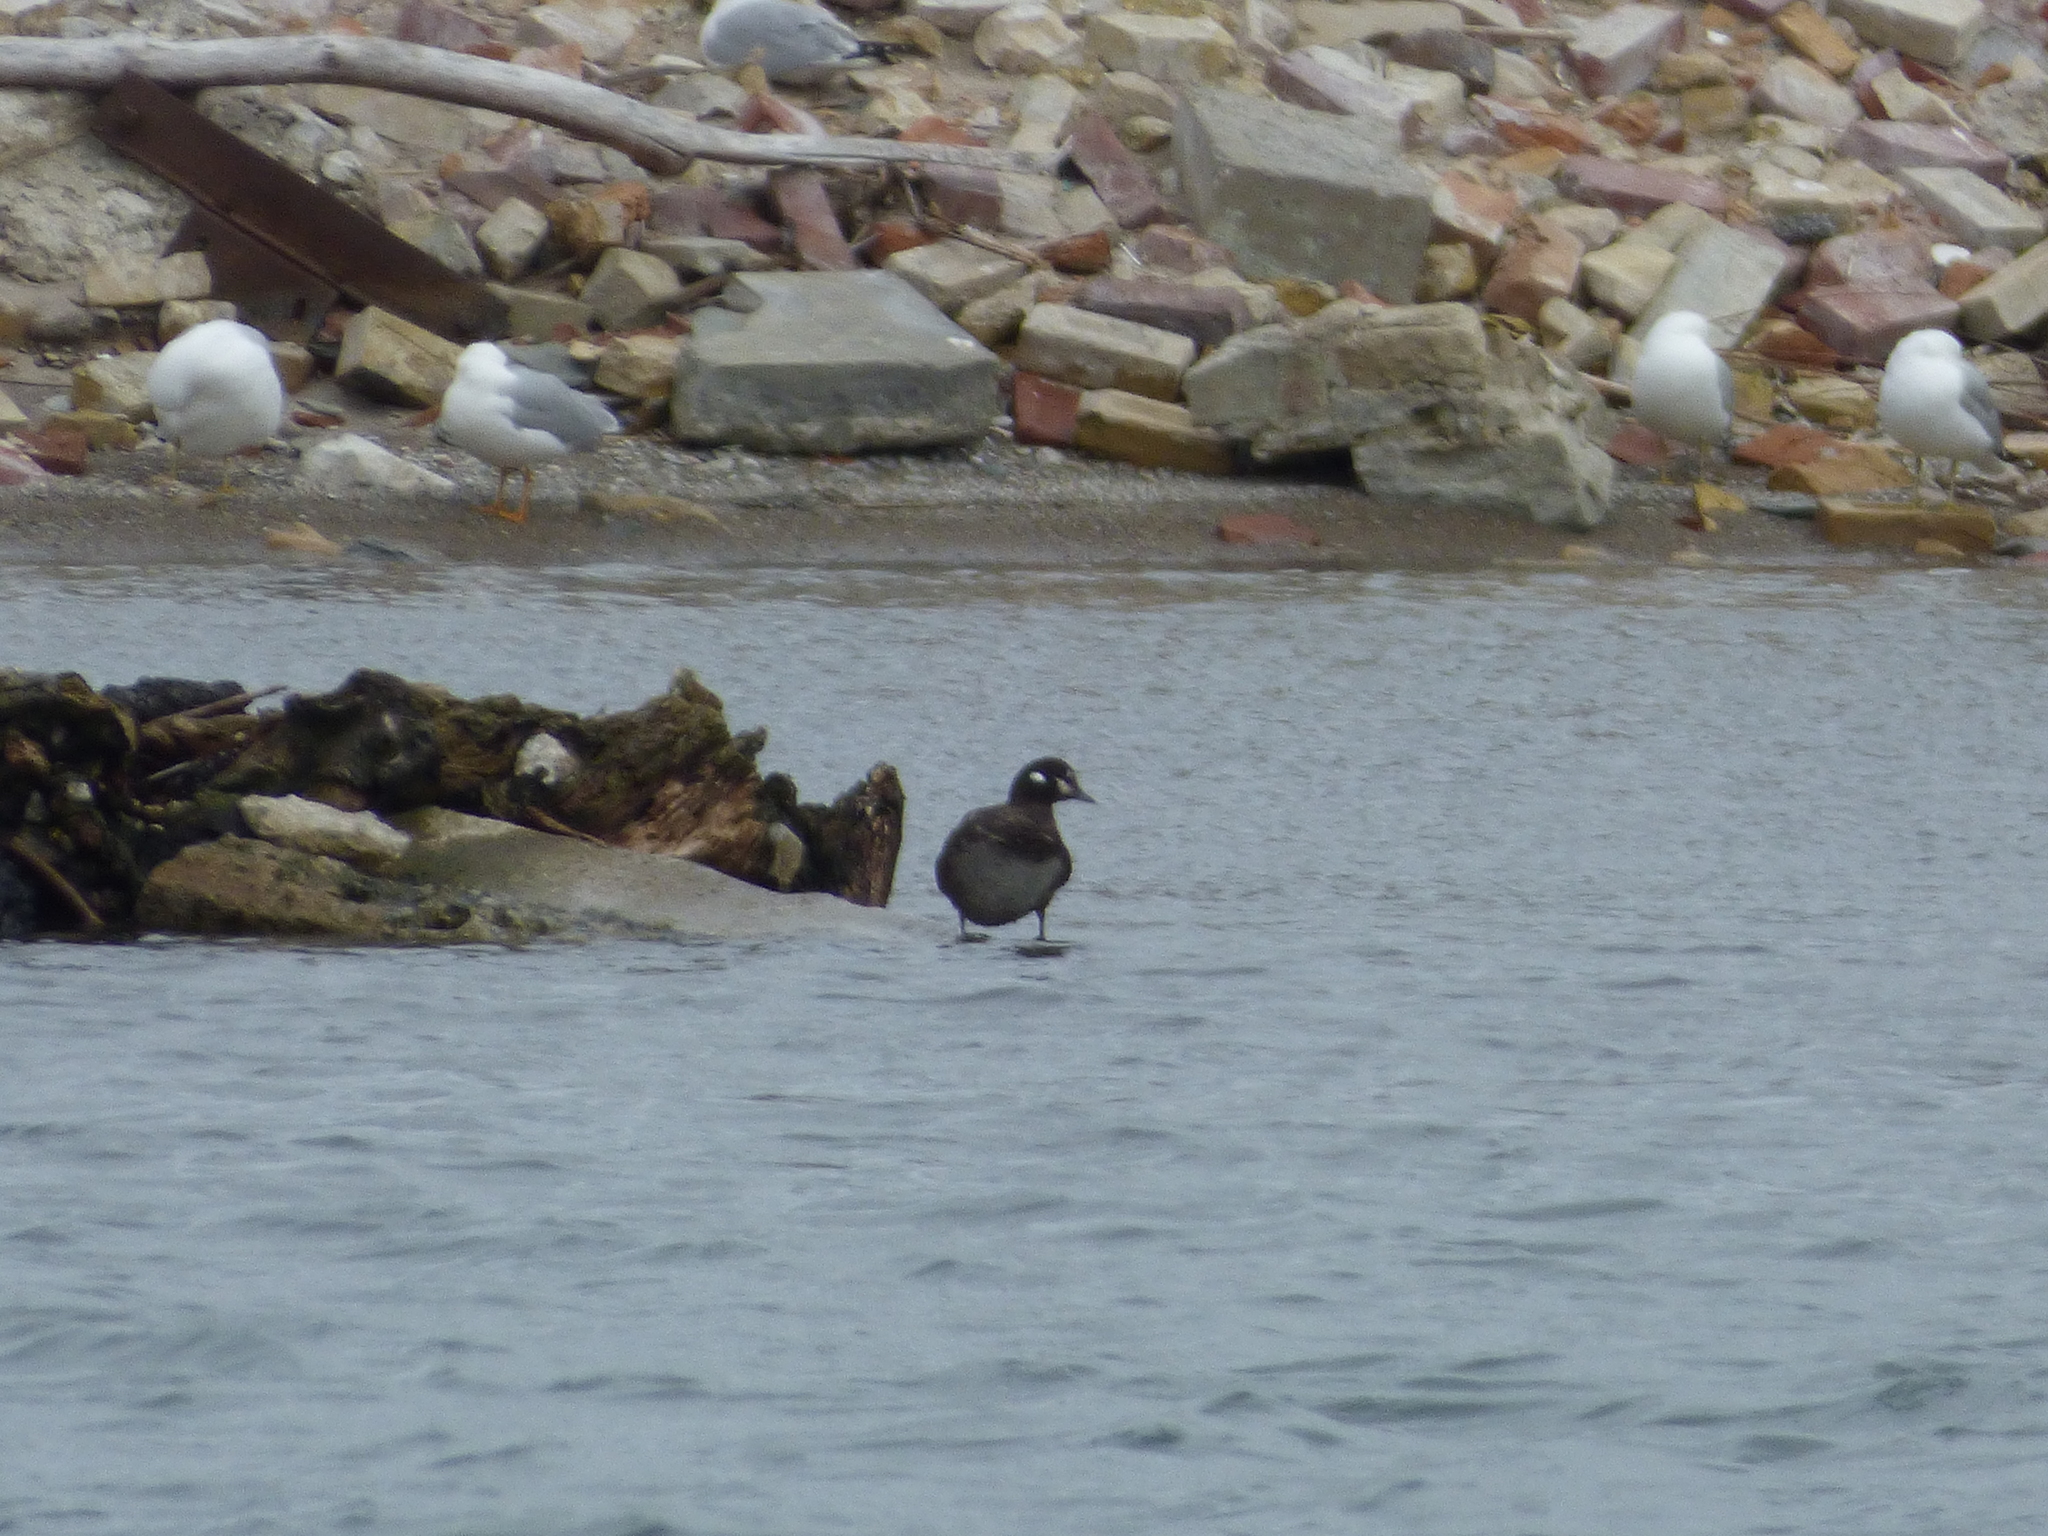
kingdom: Animalia
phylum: Chordata
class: Aves
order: Anseriformes
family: Anatidae
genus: Histrionicus
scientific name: Histrionicus histrionicus
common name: Harlequin duck
